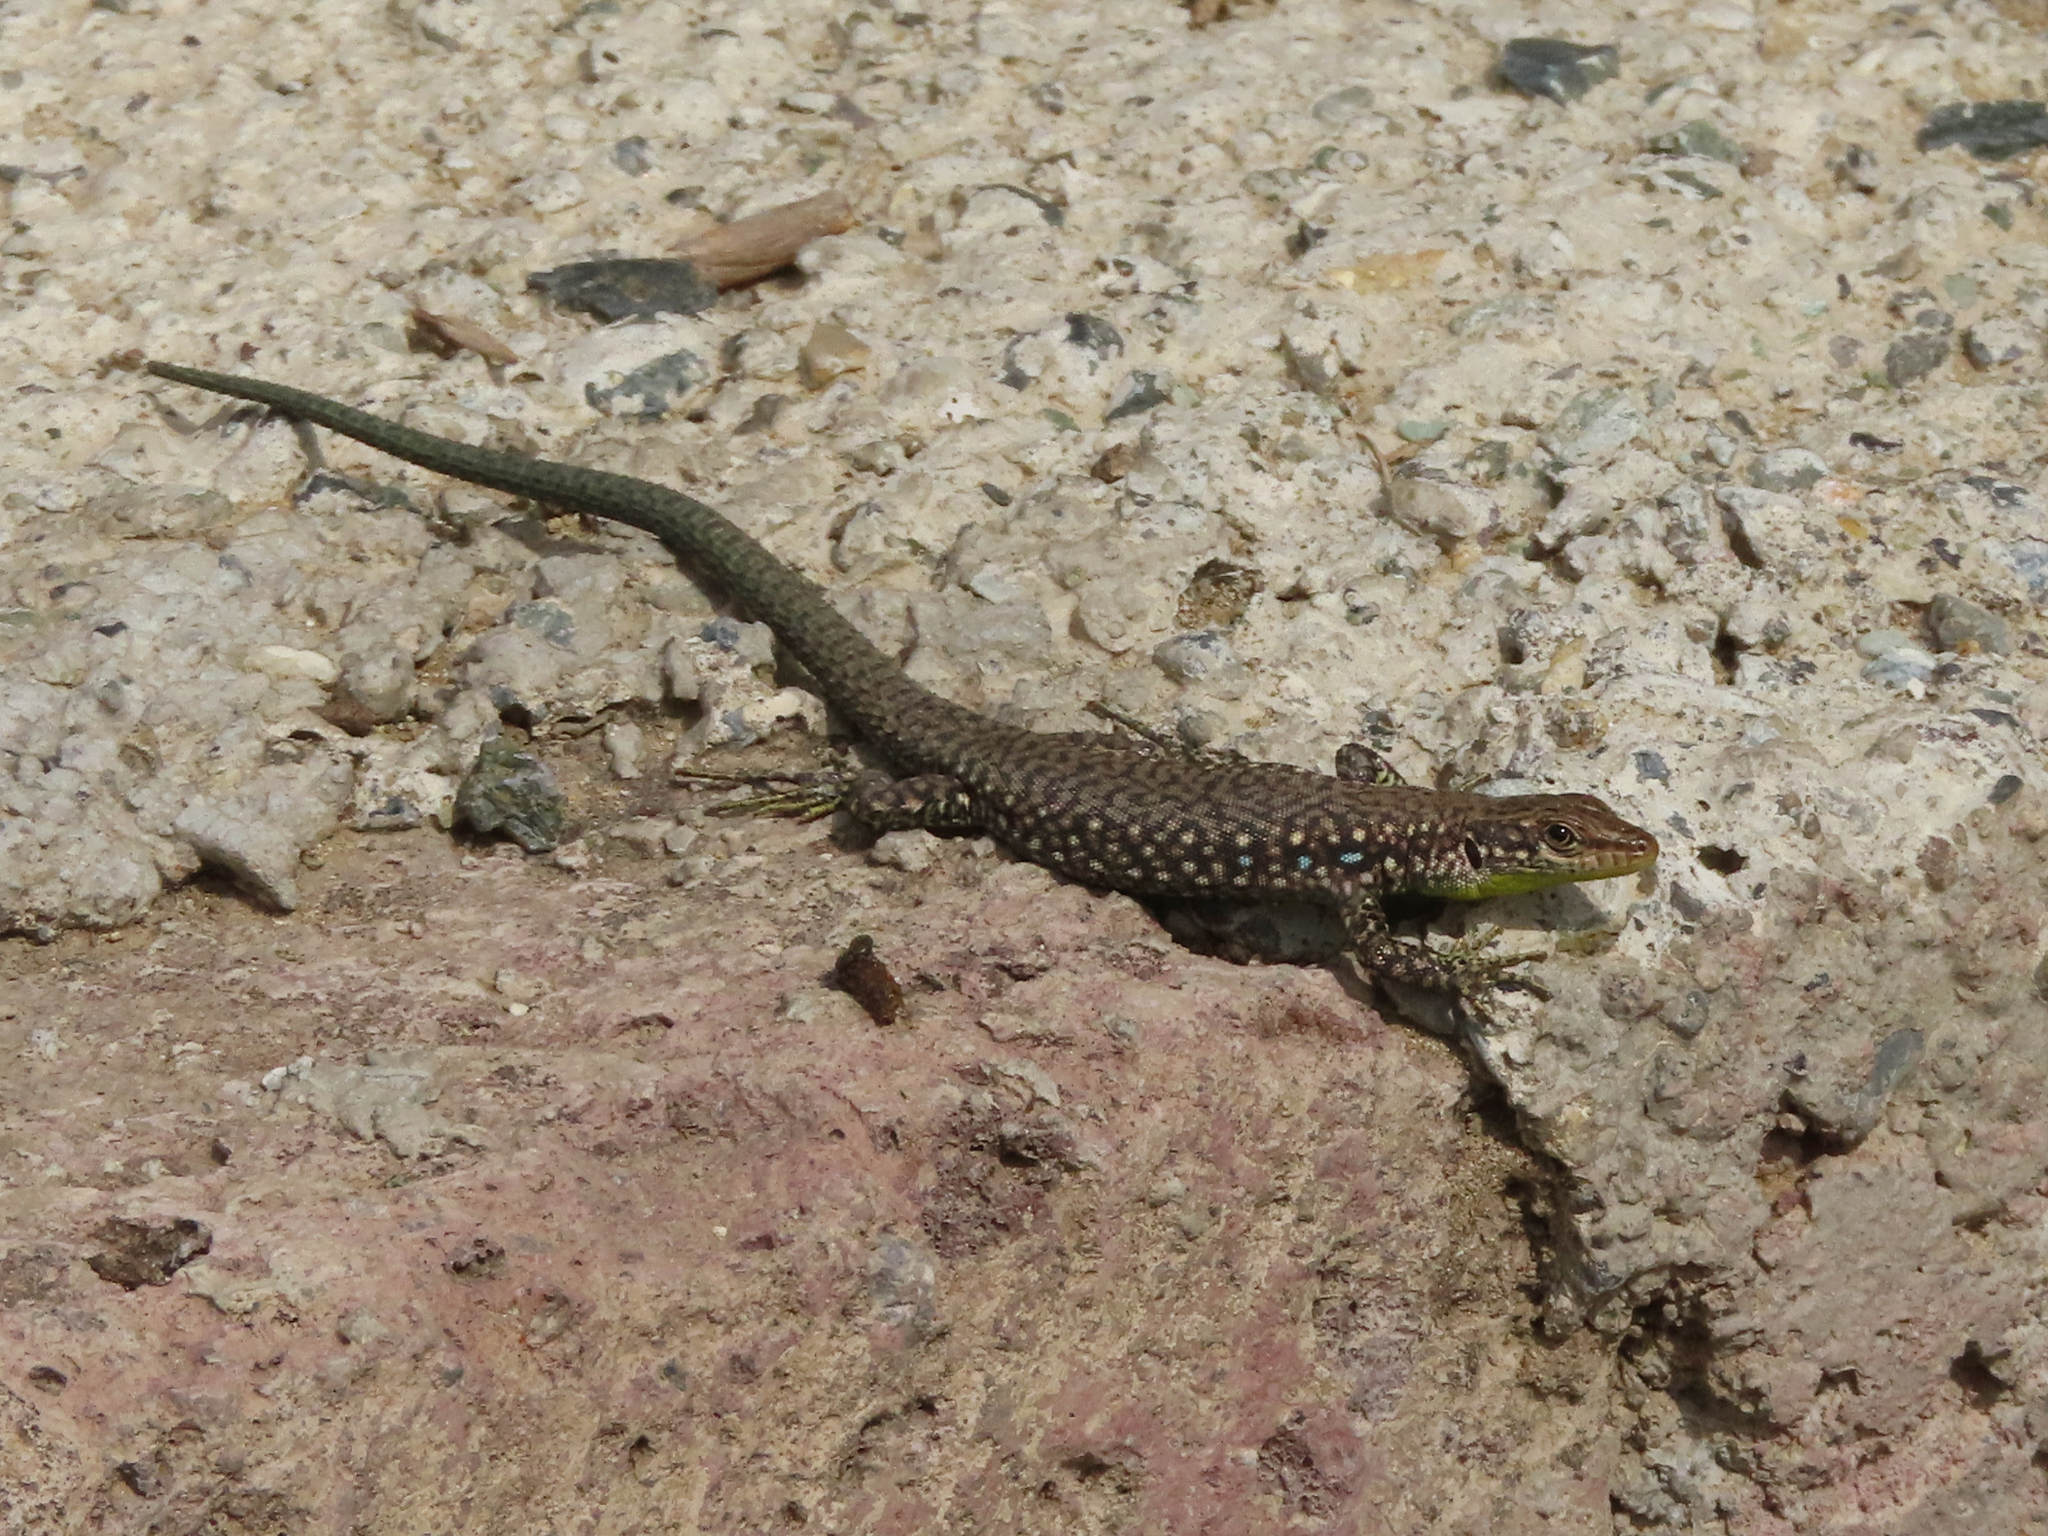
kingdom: Animalia
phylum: Chordata
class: Squamata
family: Lacertidae
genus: Darevskia
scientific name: Darevskia
